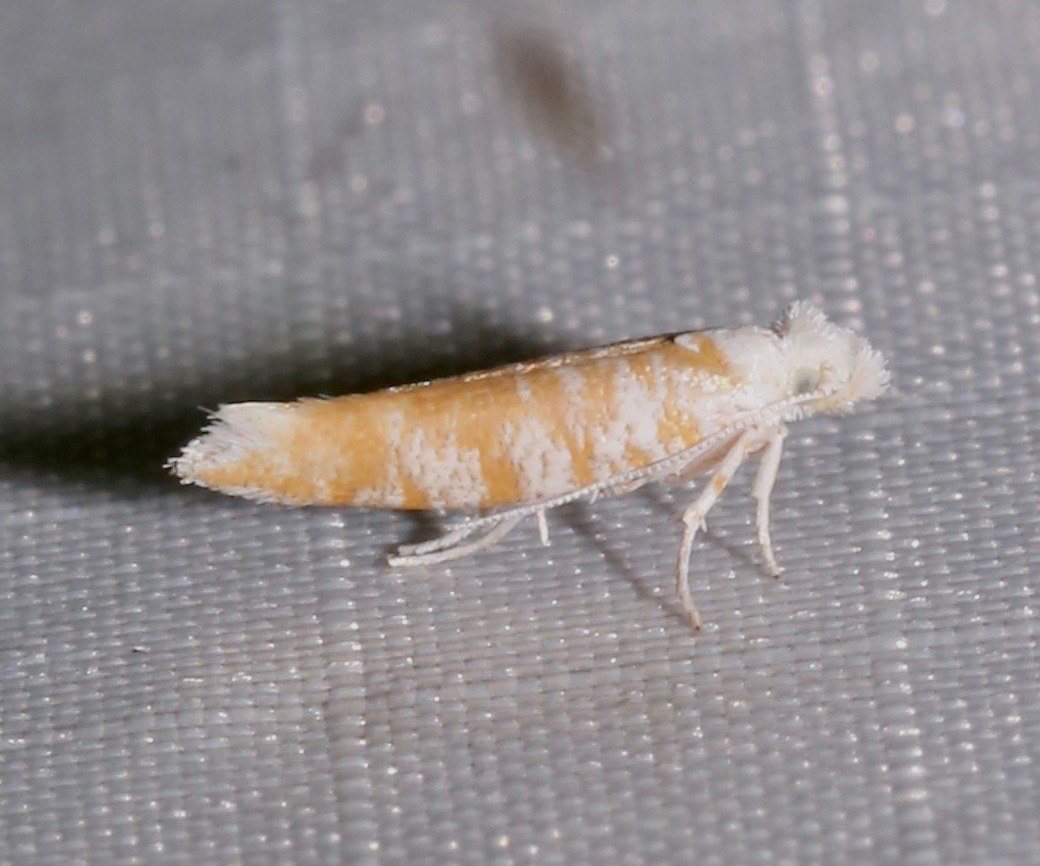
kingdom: Animalia
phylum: Arthropoda
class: Insecta
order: Lepidoptera
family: Yponomeutidae
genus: Zelleria
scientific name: Zelleria retiniella
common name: Brindled zelleria
